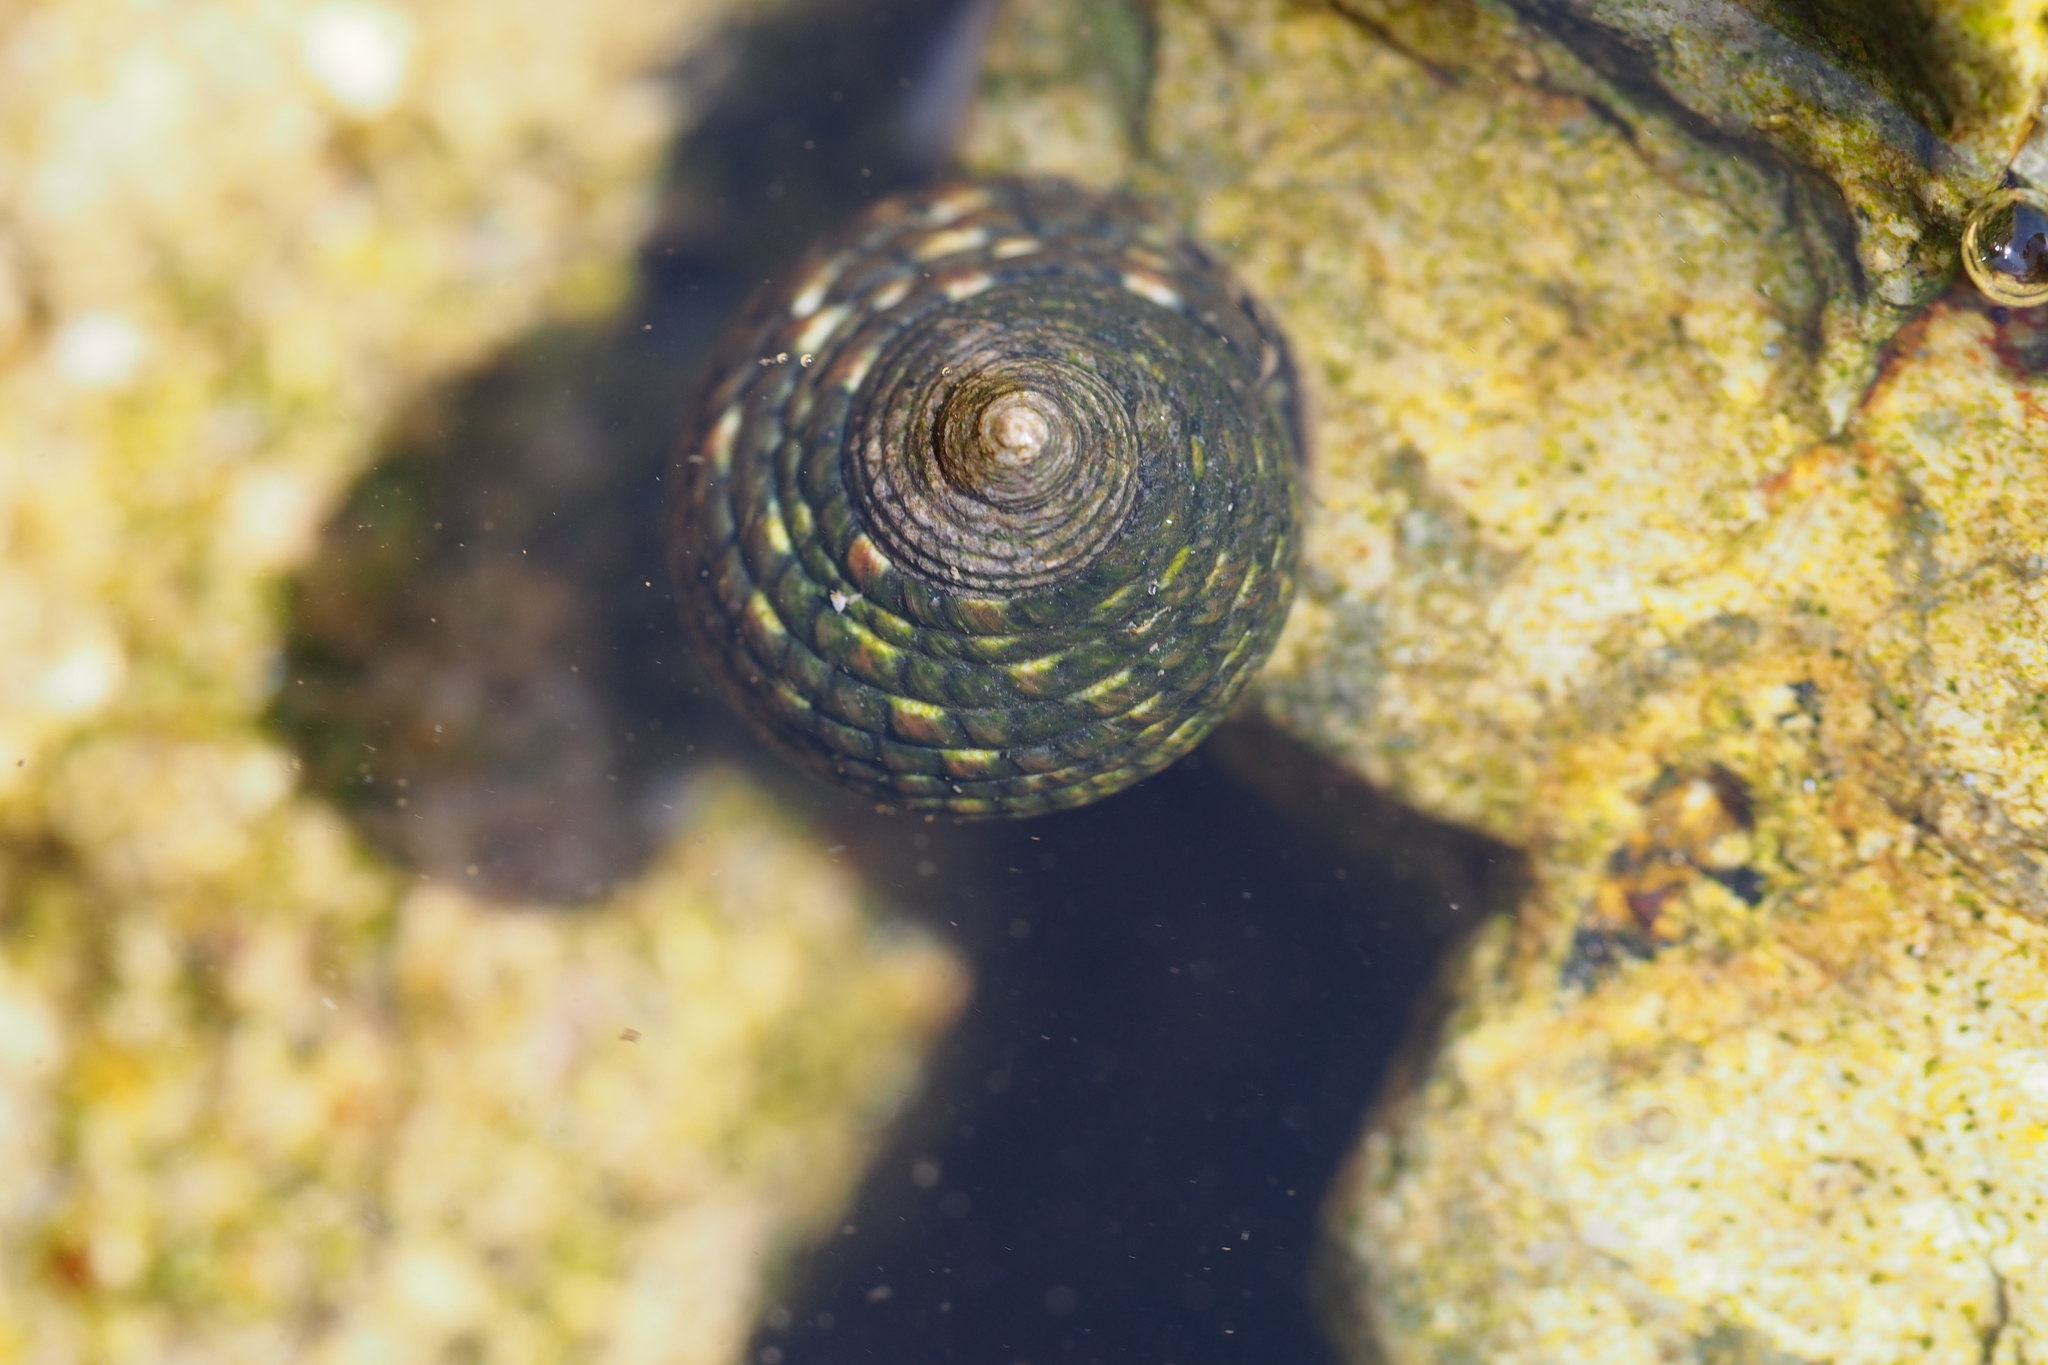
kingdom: Animalia
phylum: Mollusca
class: Gastropoda
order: Trochida
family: Trochidae
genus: Monodonta
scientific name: Monodonta confusa
